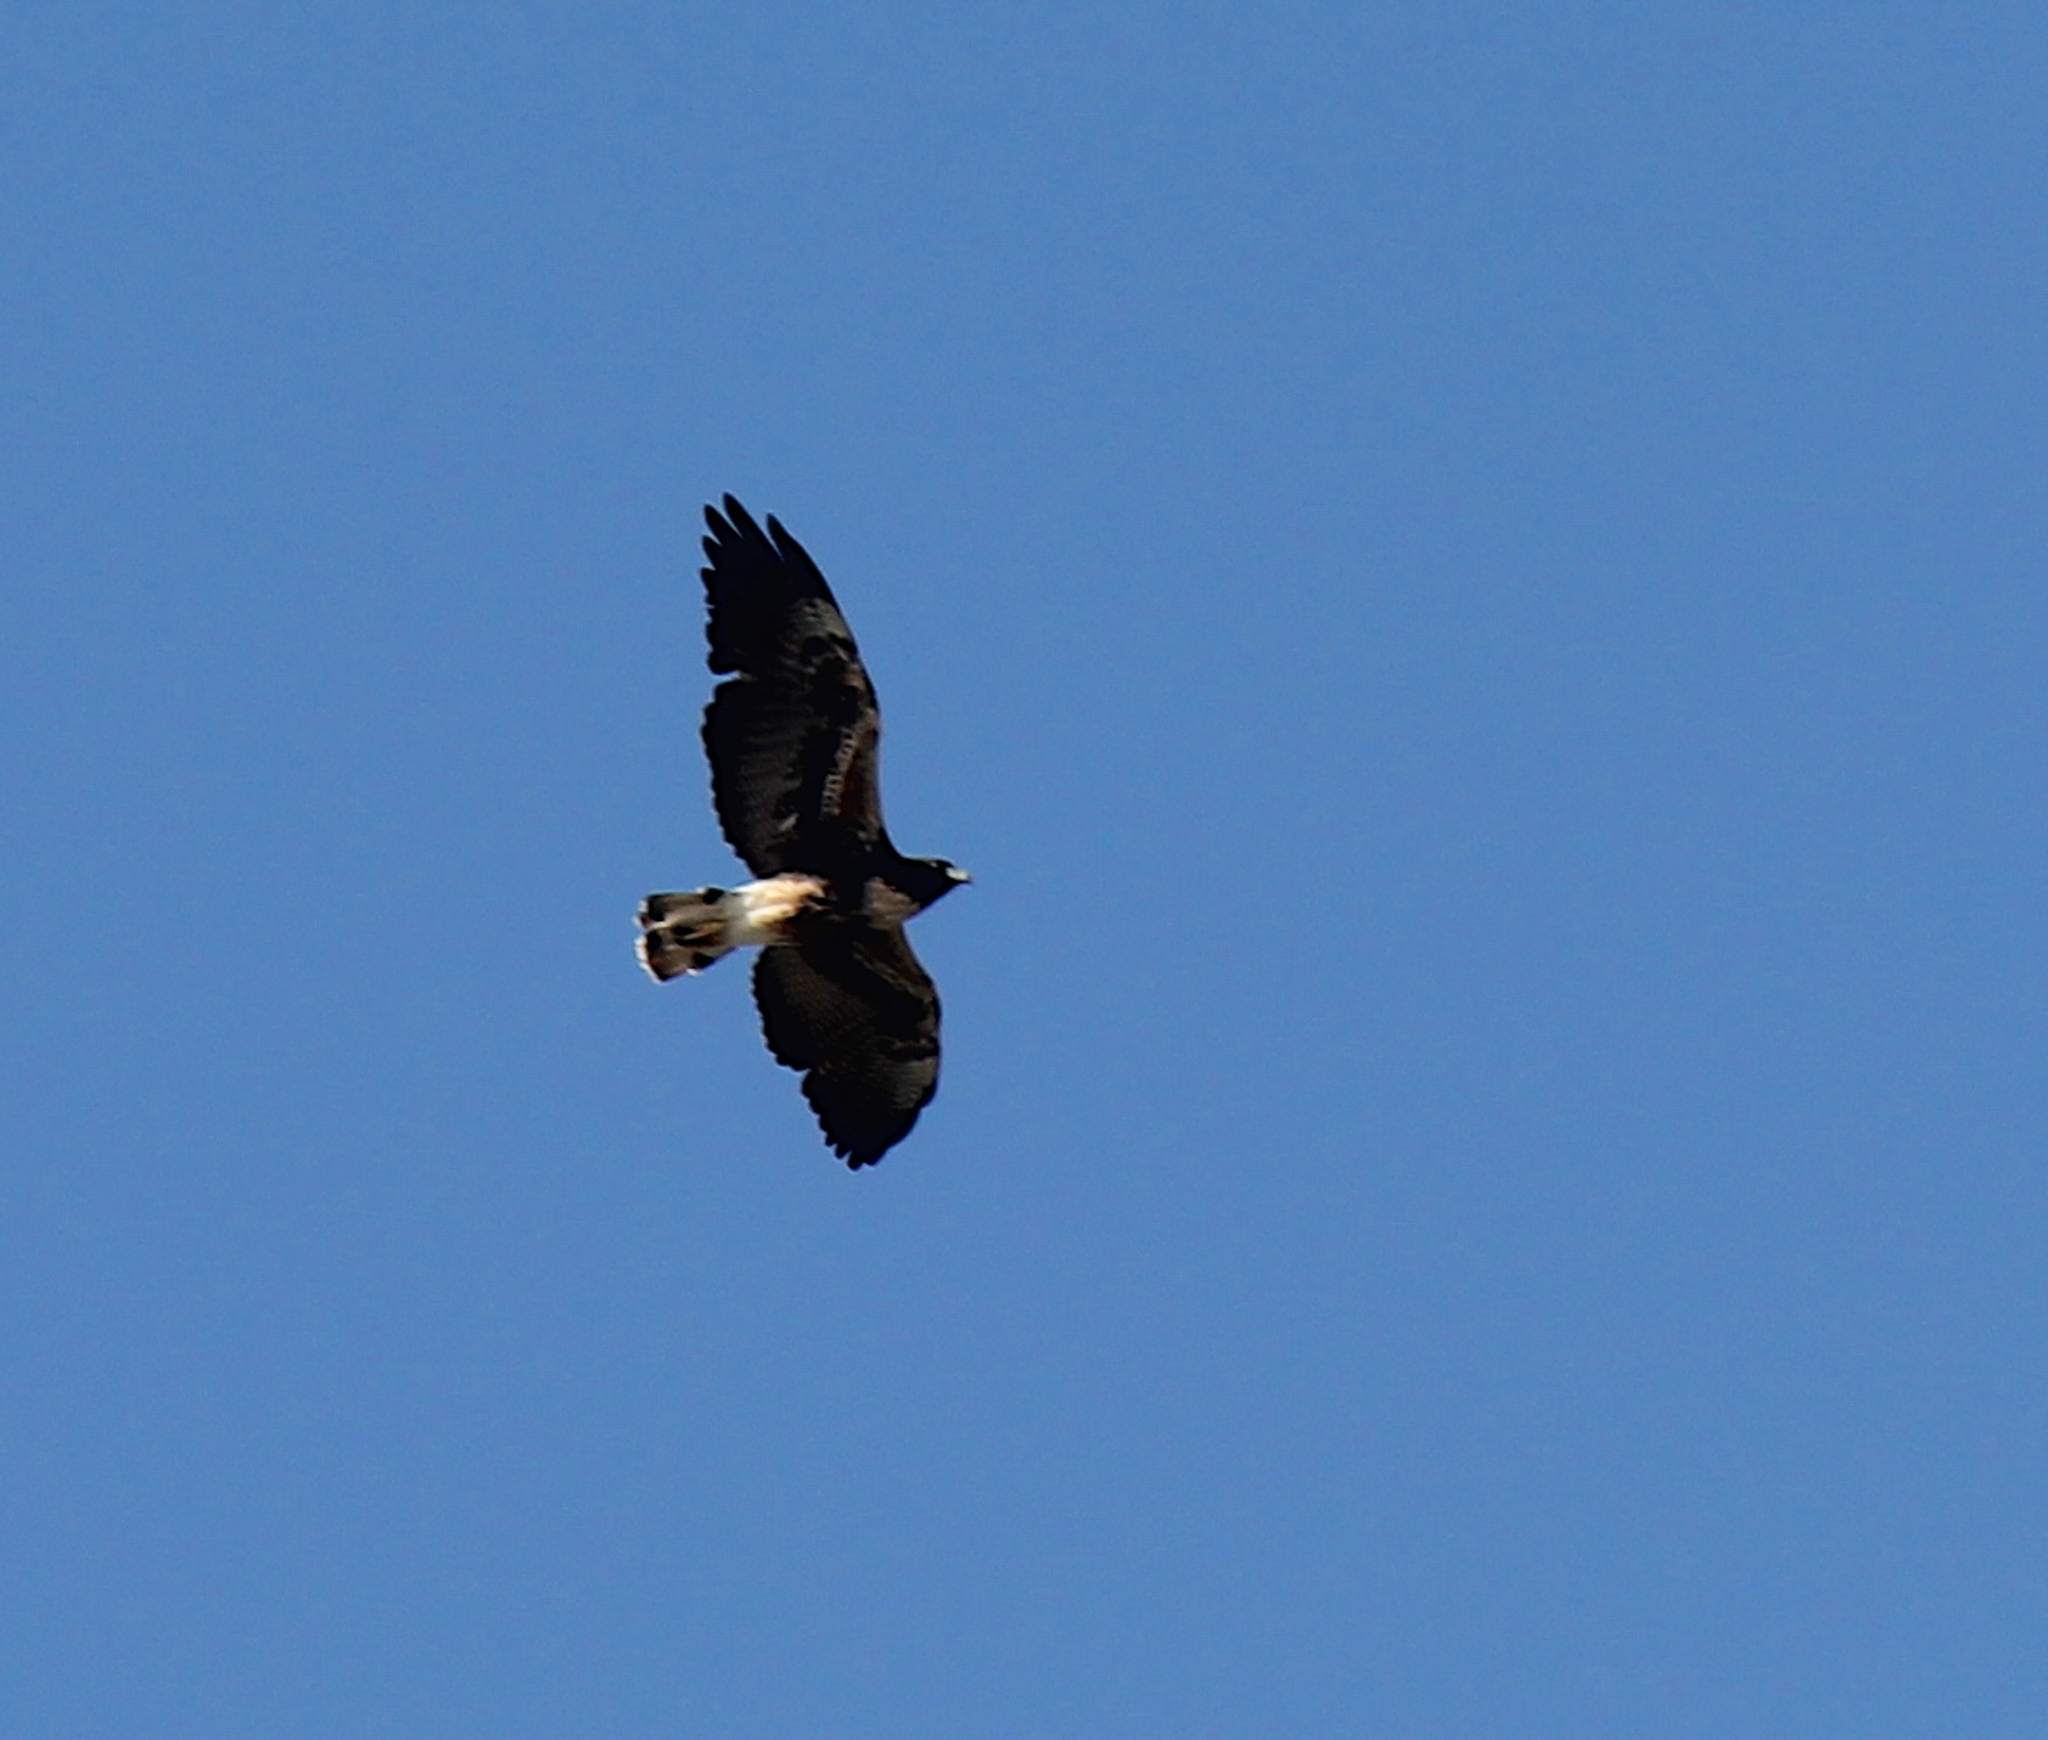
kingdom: Animalia
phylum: Chordata
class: Aves
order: Accipitriformes
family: Accipitridae
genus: Buteo
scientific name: Buteo albicaudatus
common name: White-tailed hawk
